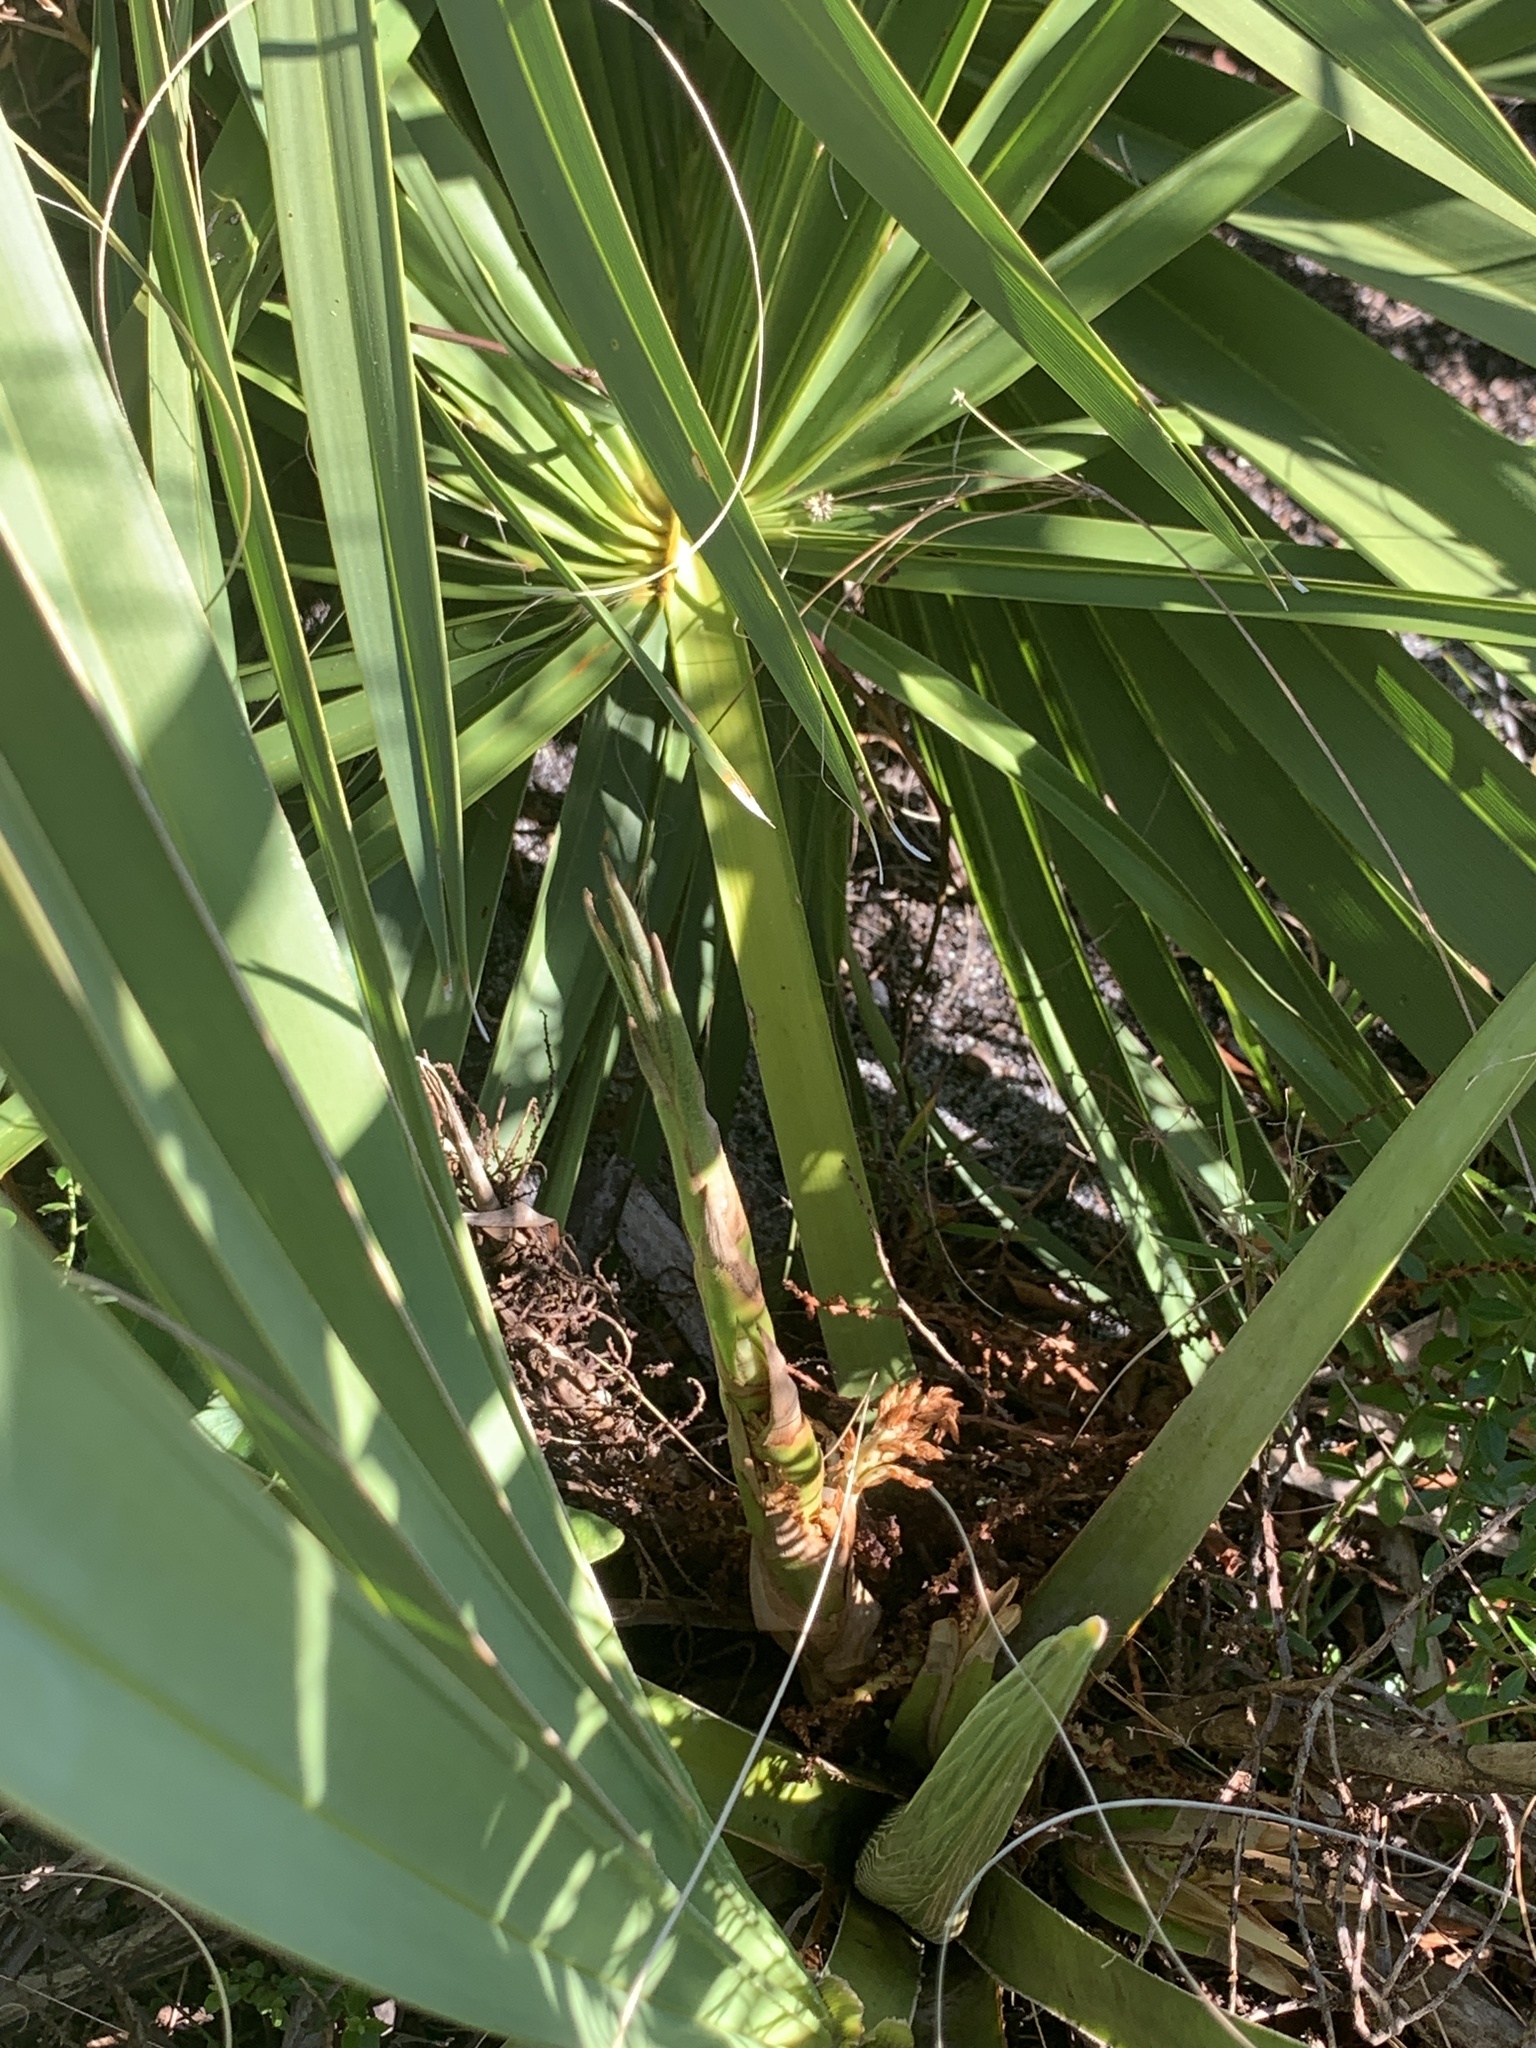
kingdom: Plantae
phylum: Tracheophyta
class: Liliopsida
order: Arecales
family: Arecaceae
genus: Sabal
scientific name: Sabal etonia
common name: Dwarf palmetto
